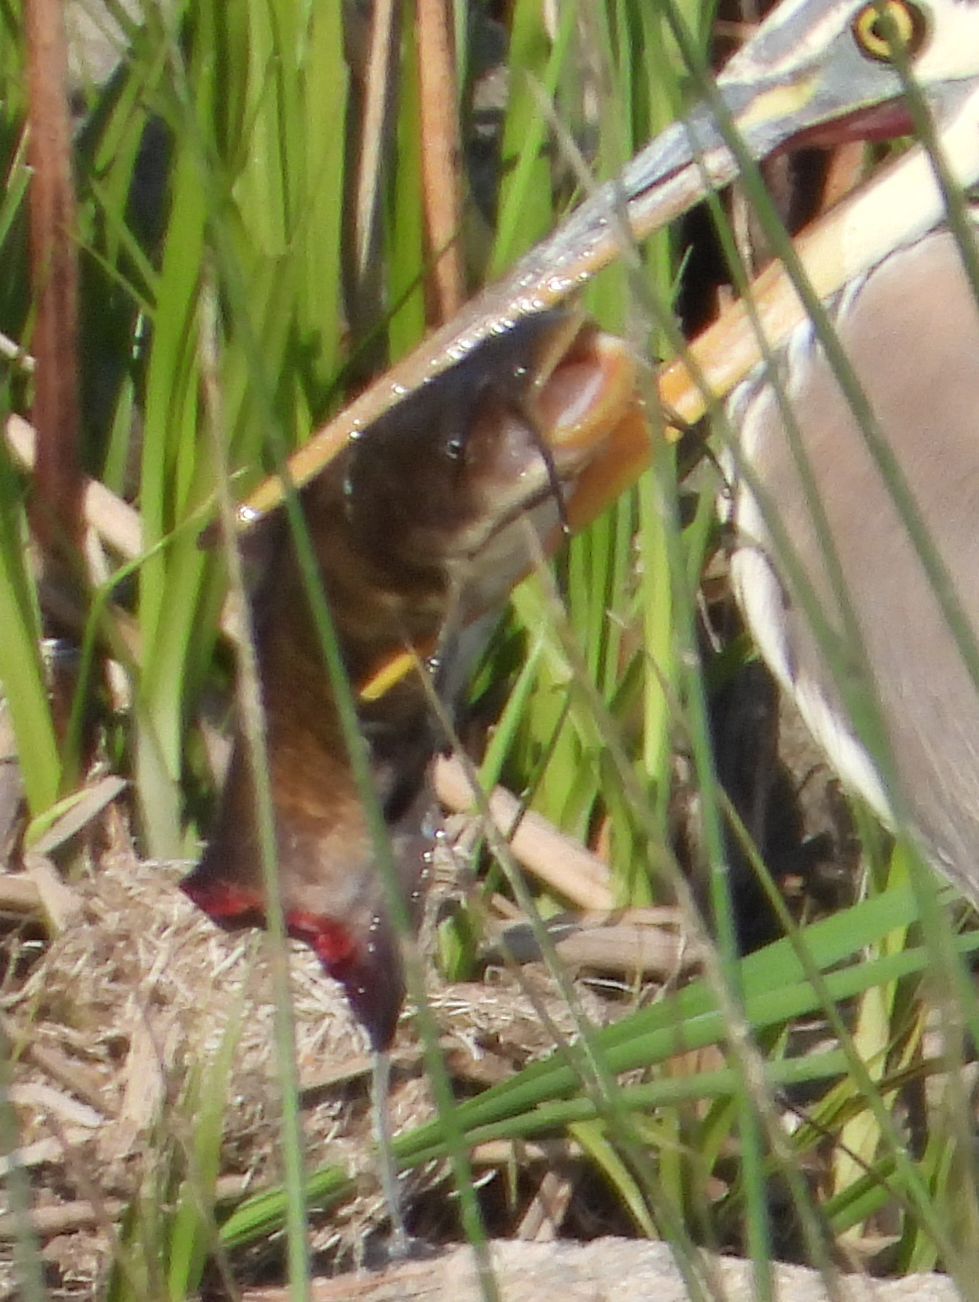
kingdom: Animalia
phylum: Chordata
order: Siluriformes
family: Ictaluridae
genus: Ameiurus
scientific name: Ameiurus nebulosus
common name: Brown bullhead
